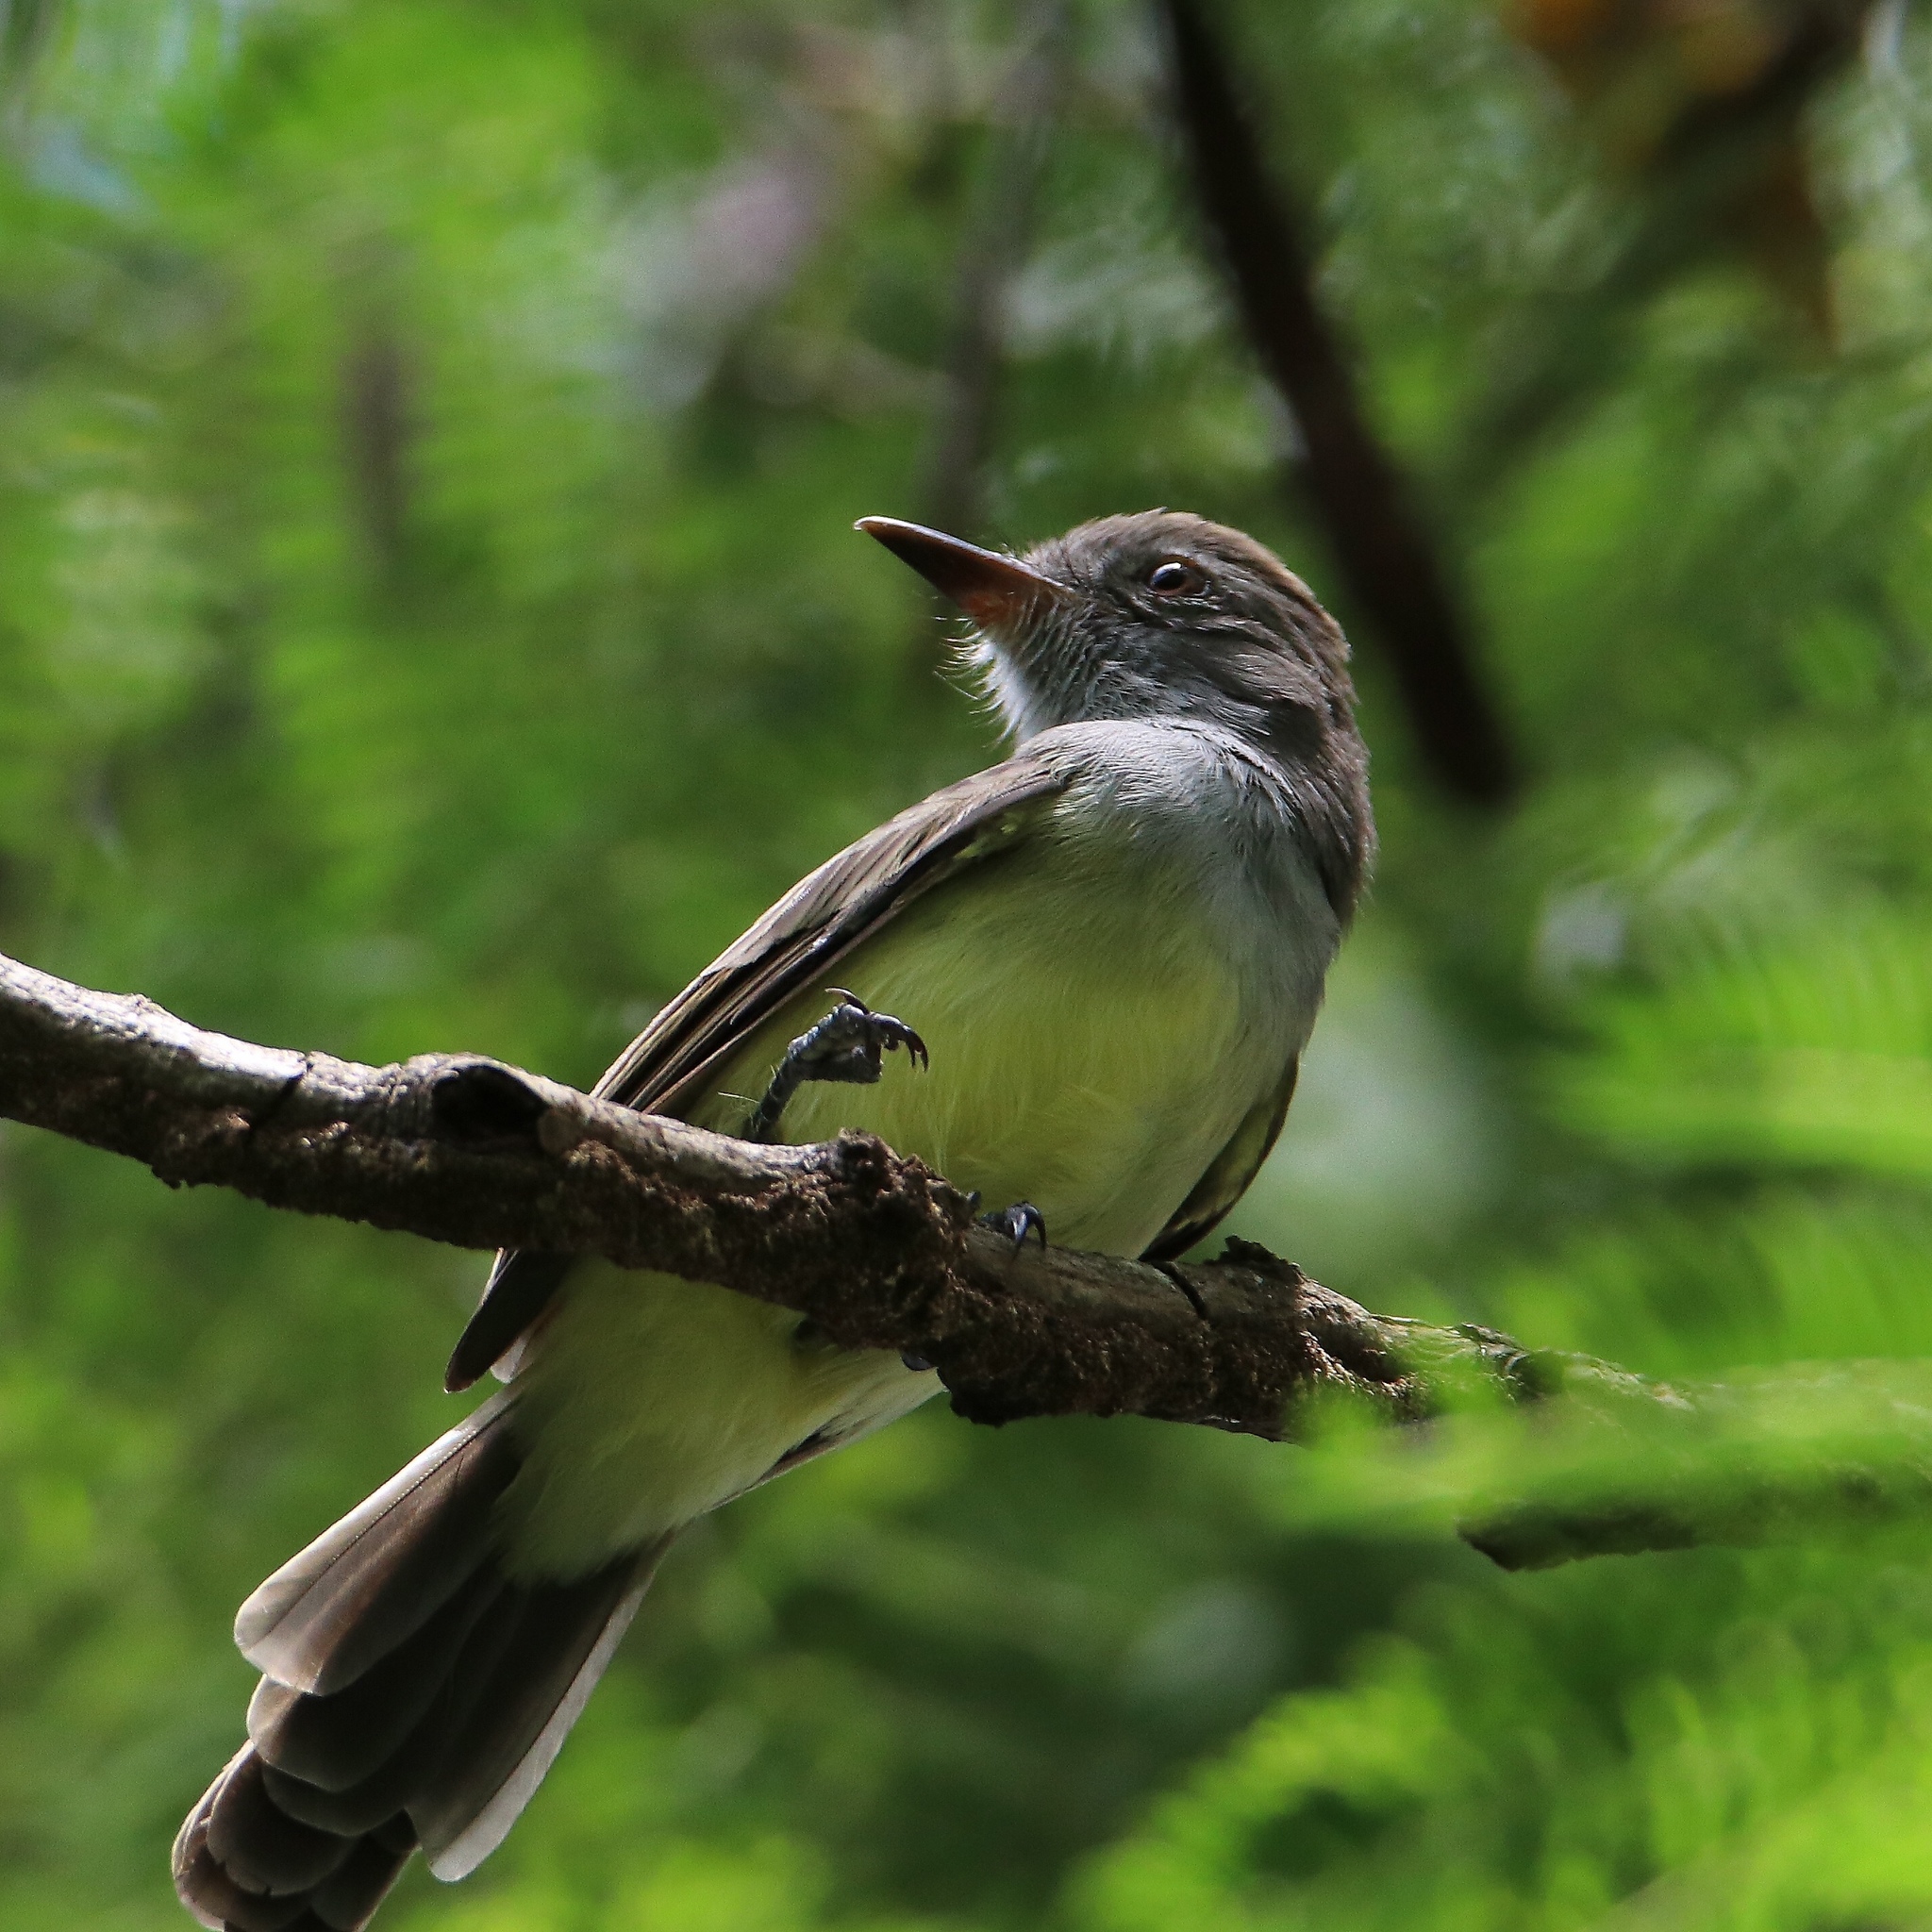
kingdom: Animalia
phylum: Chordata
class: Aves
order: Passeriformes
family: Tyrannidae
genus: Myiarchus
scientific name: Myiarchus panamensis
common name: Panama flycatcher
